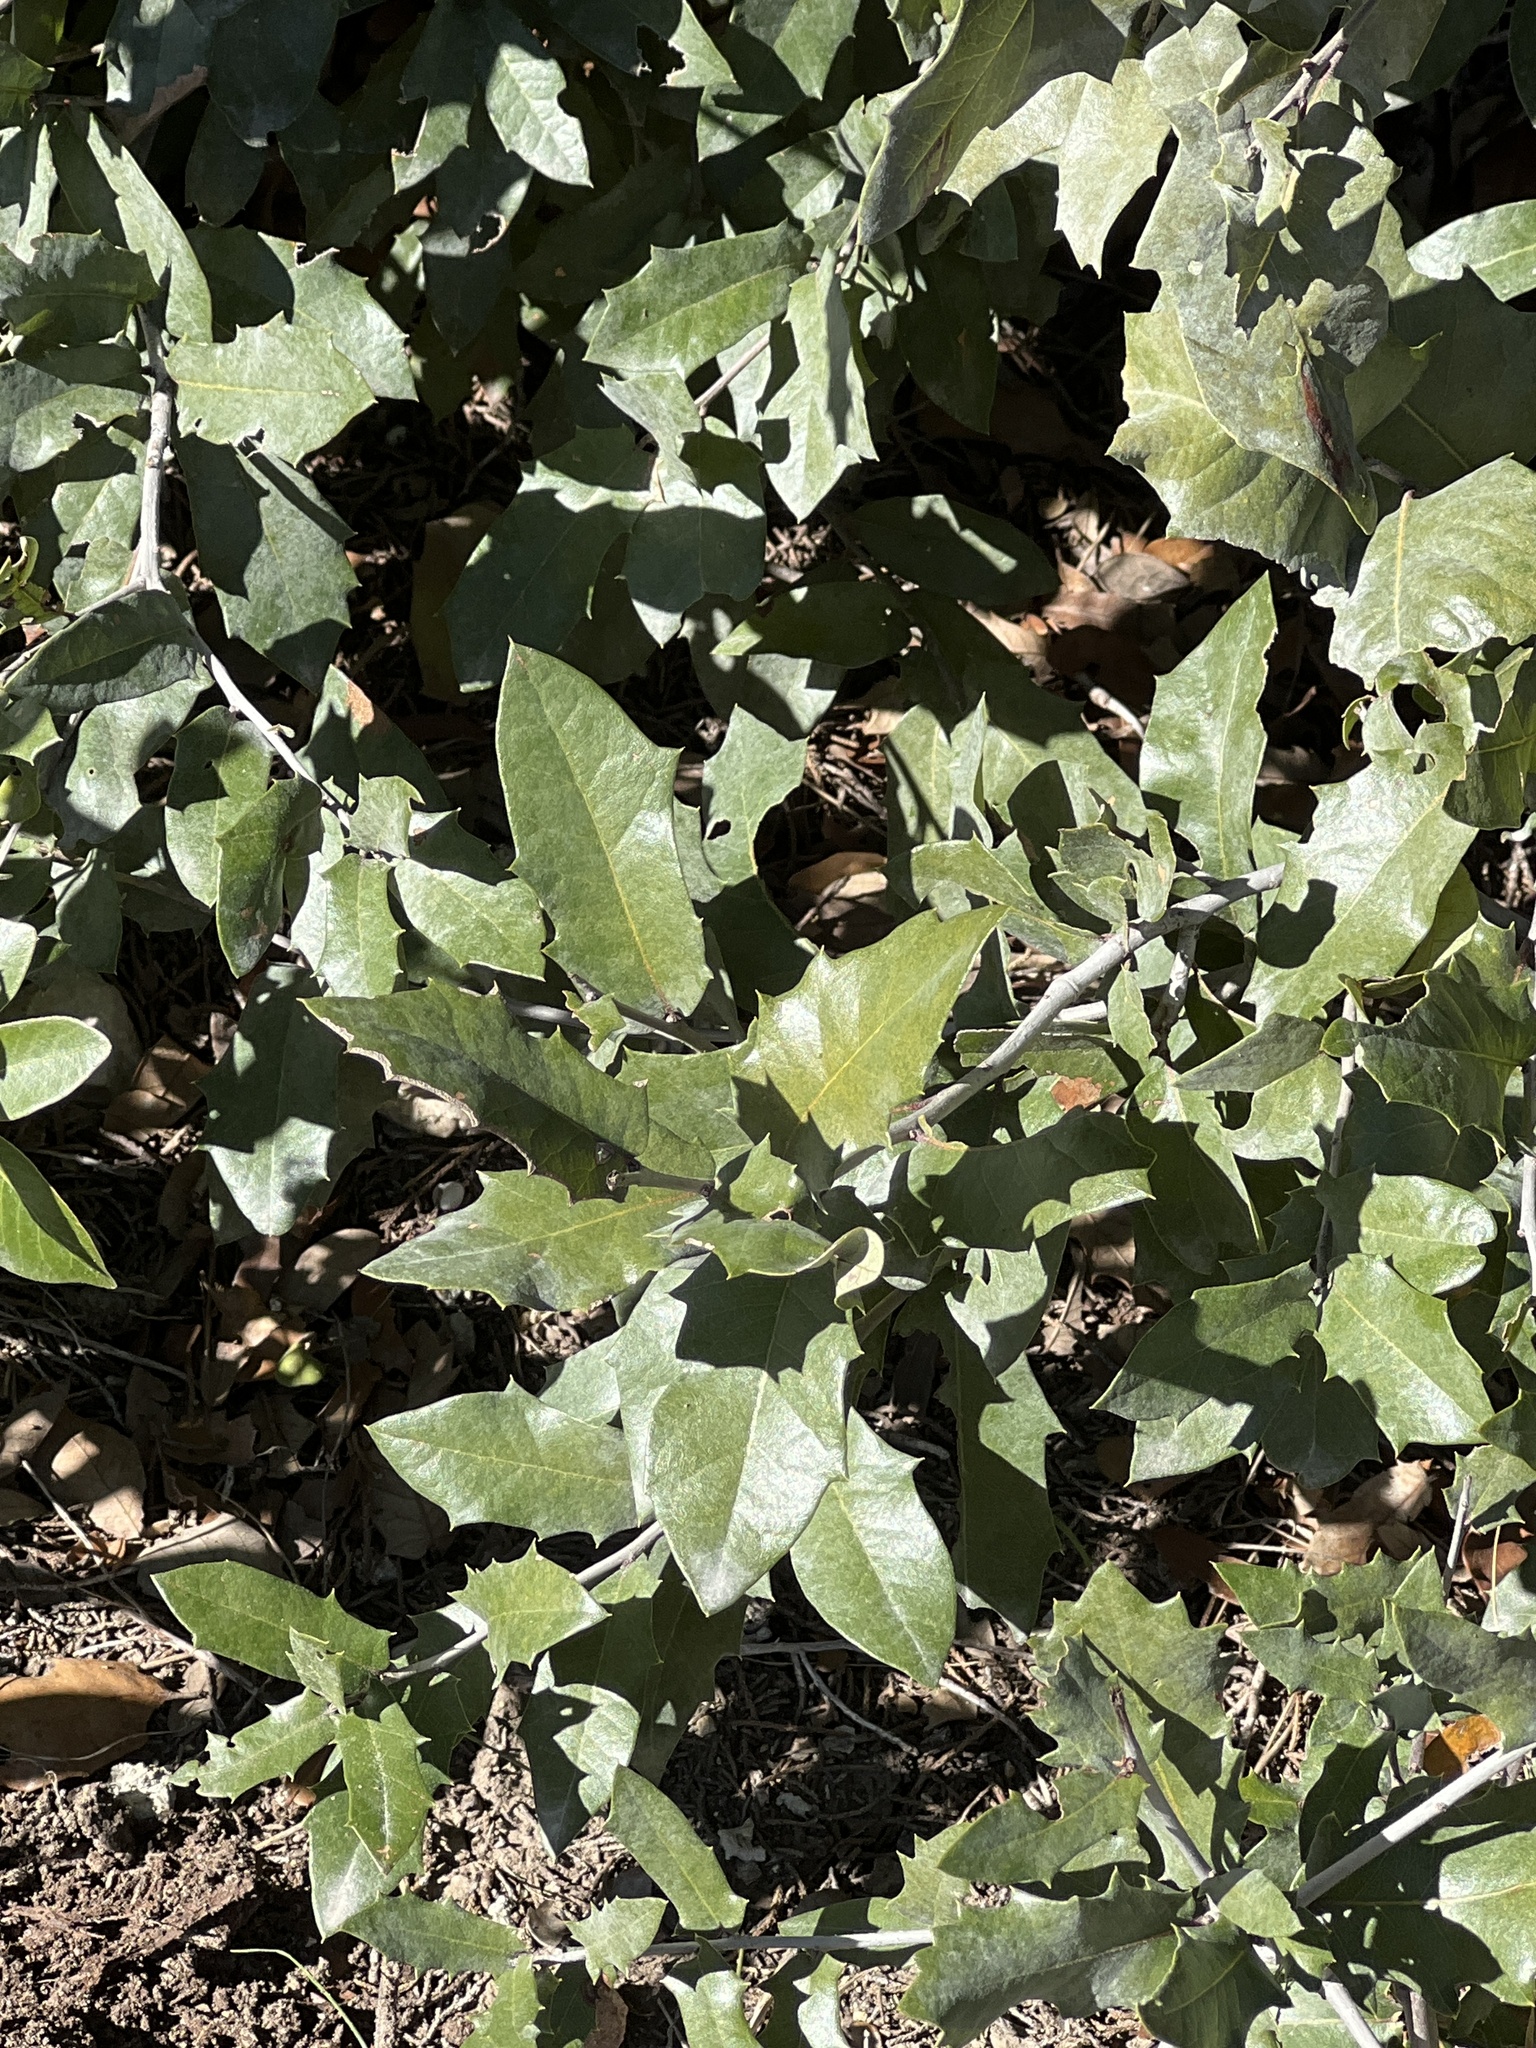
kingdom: Plantae
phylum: Tracheophyta
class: Magnoliopsida
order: Fagales
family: Fagaceae
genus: Quercus
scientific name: Quercus fusiformis
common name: Texas live oak
